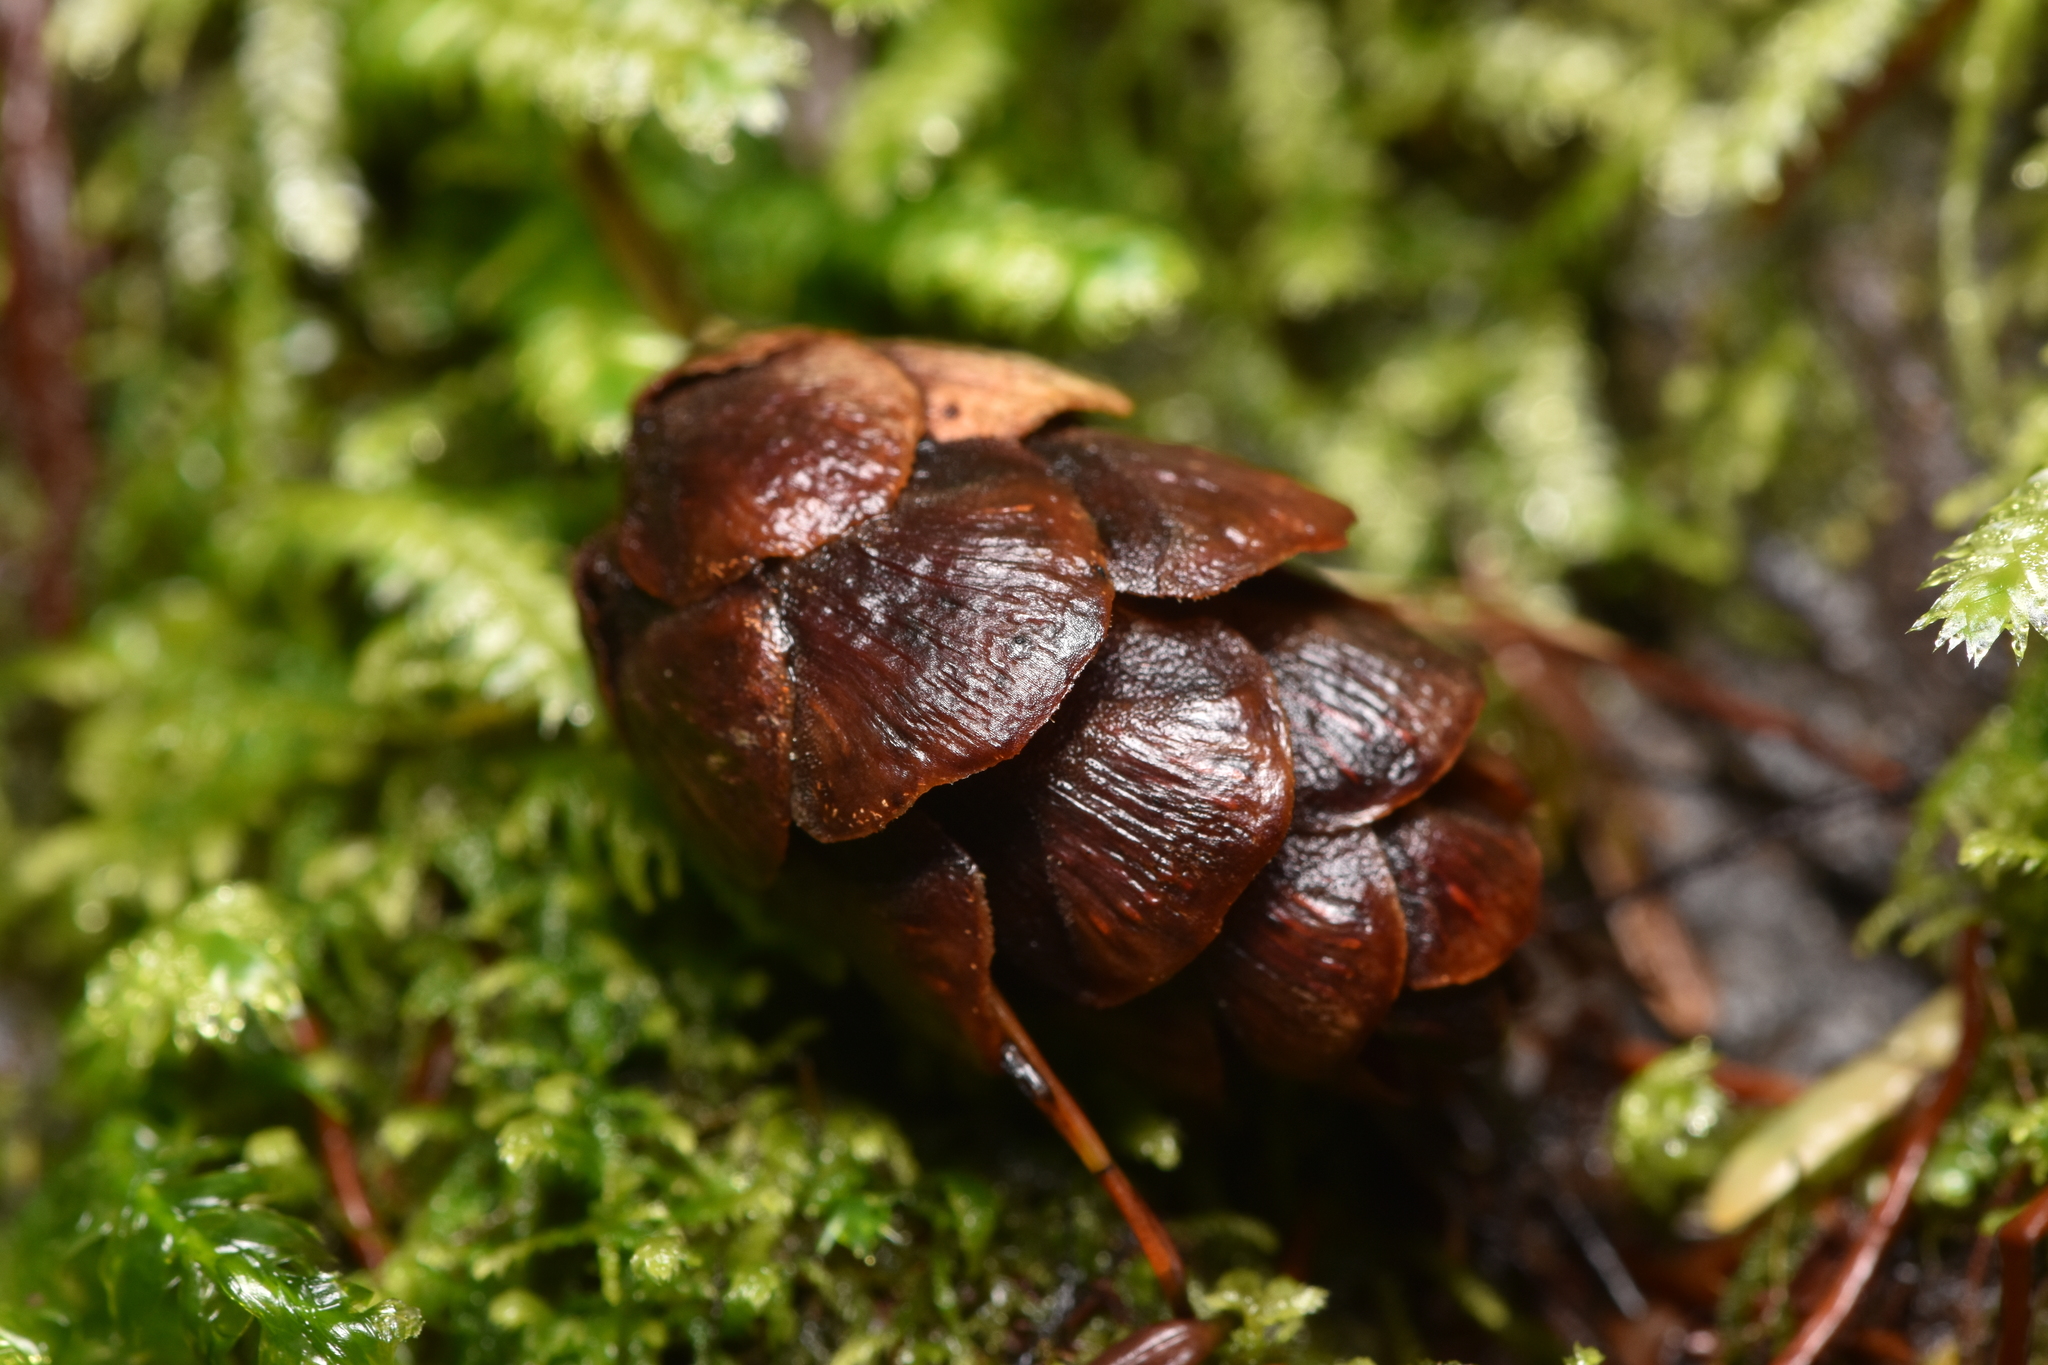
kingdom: Plantae
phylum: Tracheophyta
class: Pinopsida
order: Pinales
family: Pinaceae
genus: Tsuga
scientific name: Tsuga heterophylla
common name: Western hemlock
